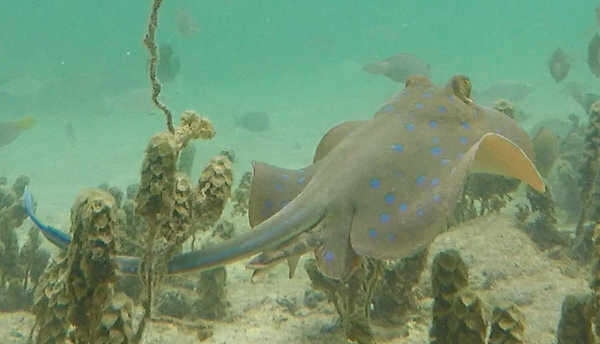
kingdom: Animalia
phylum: Chordata
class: Elasmobranchii
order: Myliobatiformes
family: Dasyatidae
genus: Taeniura
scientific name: Taeniura lymma
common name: Bluespotted ribbontail ray
